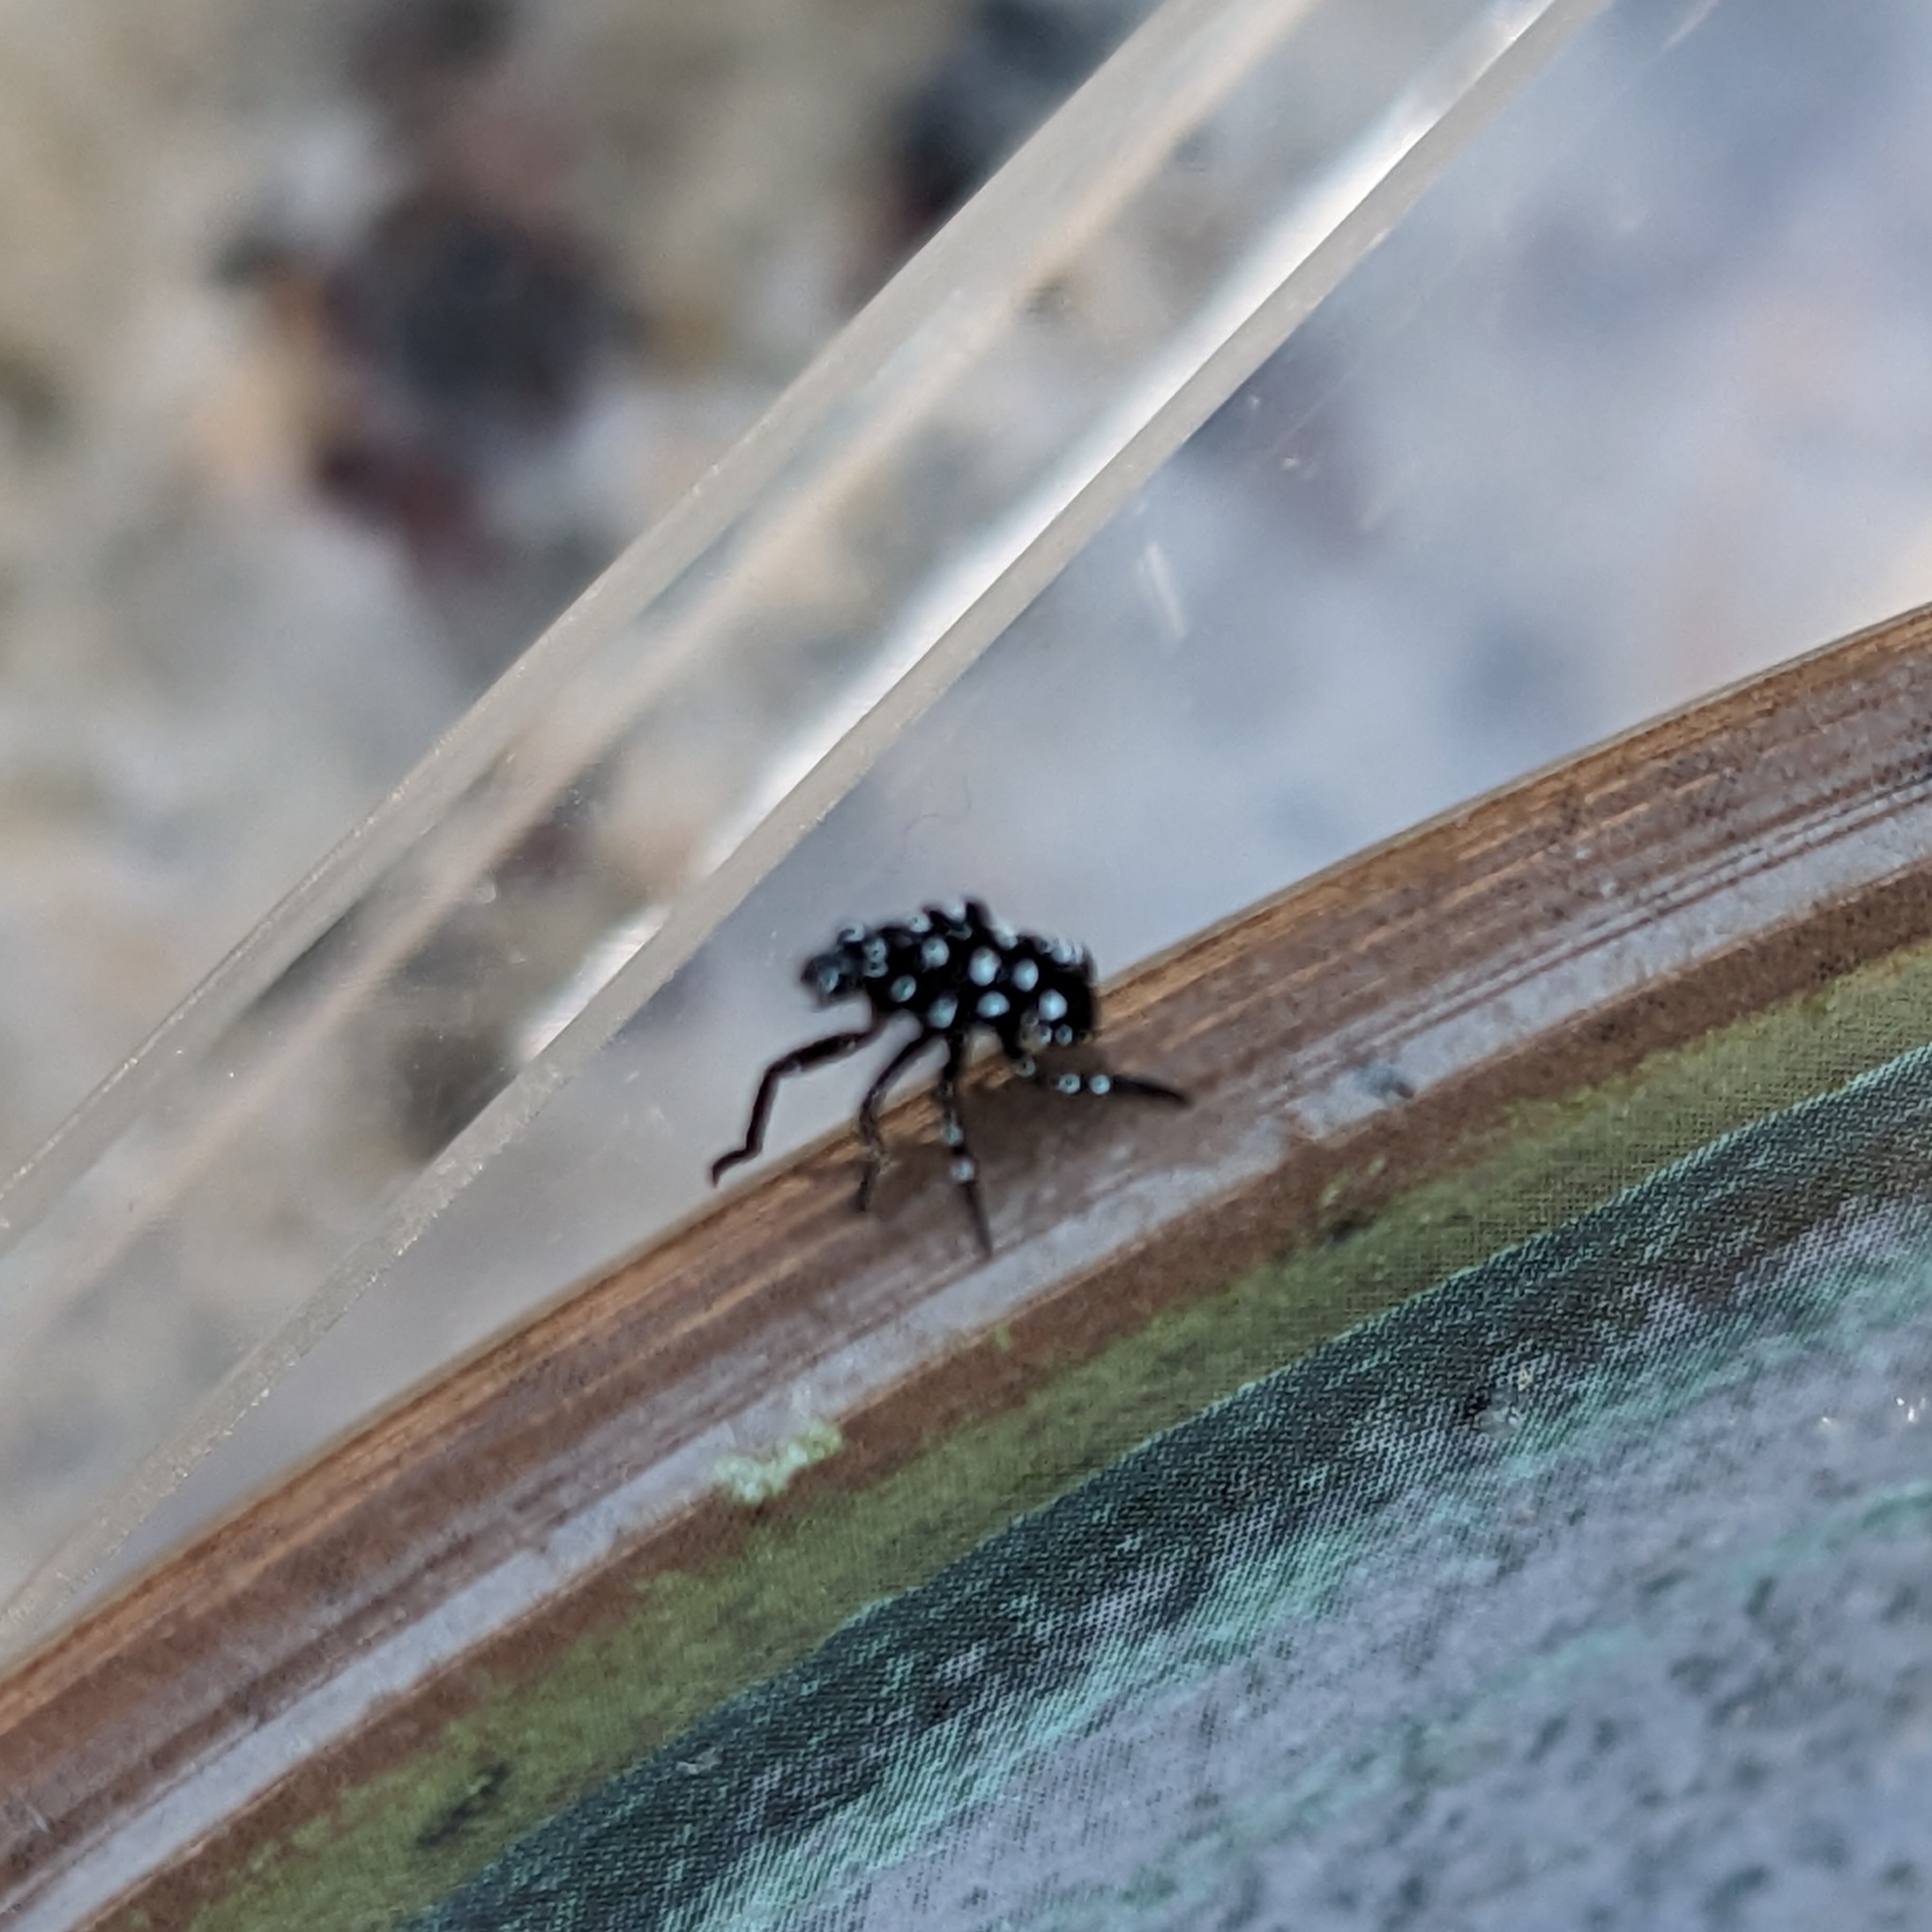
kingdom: Animalia
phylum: Arthropoda
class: Insecta
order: Hemiptera
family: Fulgoridae
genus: Lycorma
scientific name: Lycorma delicatula
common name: Spotted lanternfly
